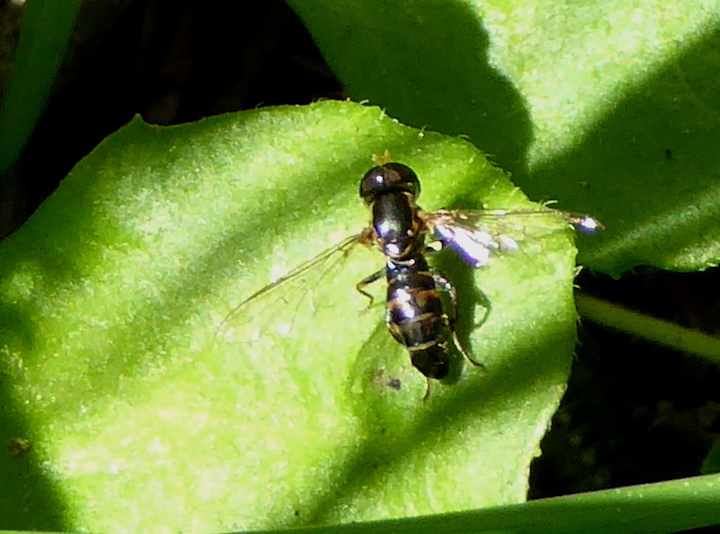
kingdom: Animalia
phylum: Arthropoda
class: Insecta
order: Diptera
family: Syrphidae
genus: Toxomerus
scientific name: Toxomerus occidentalis
